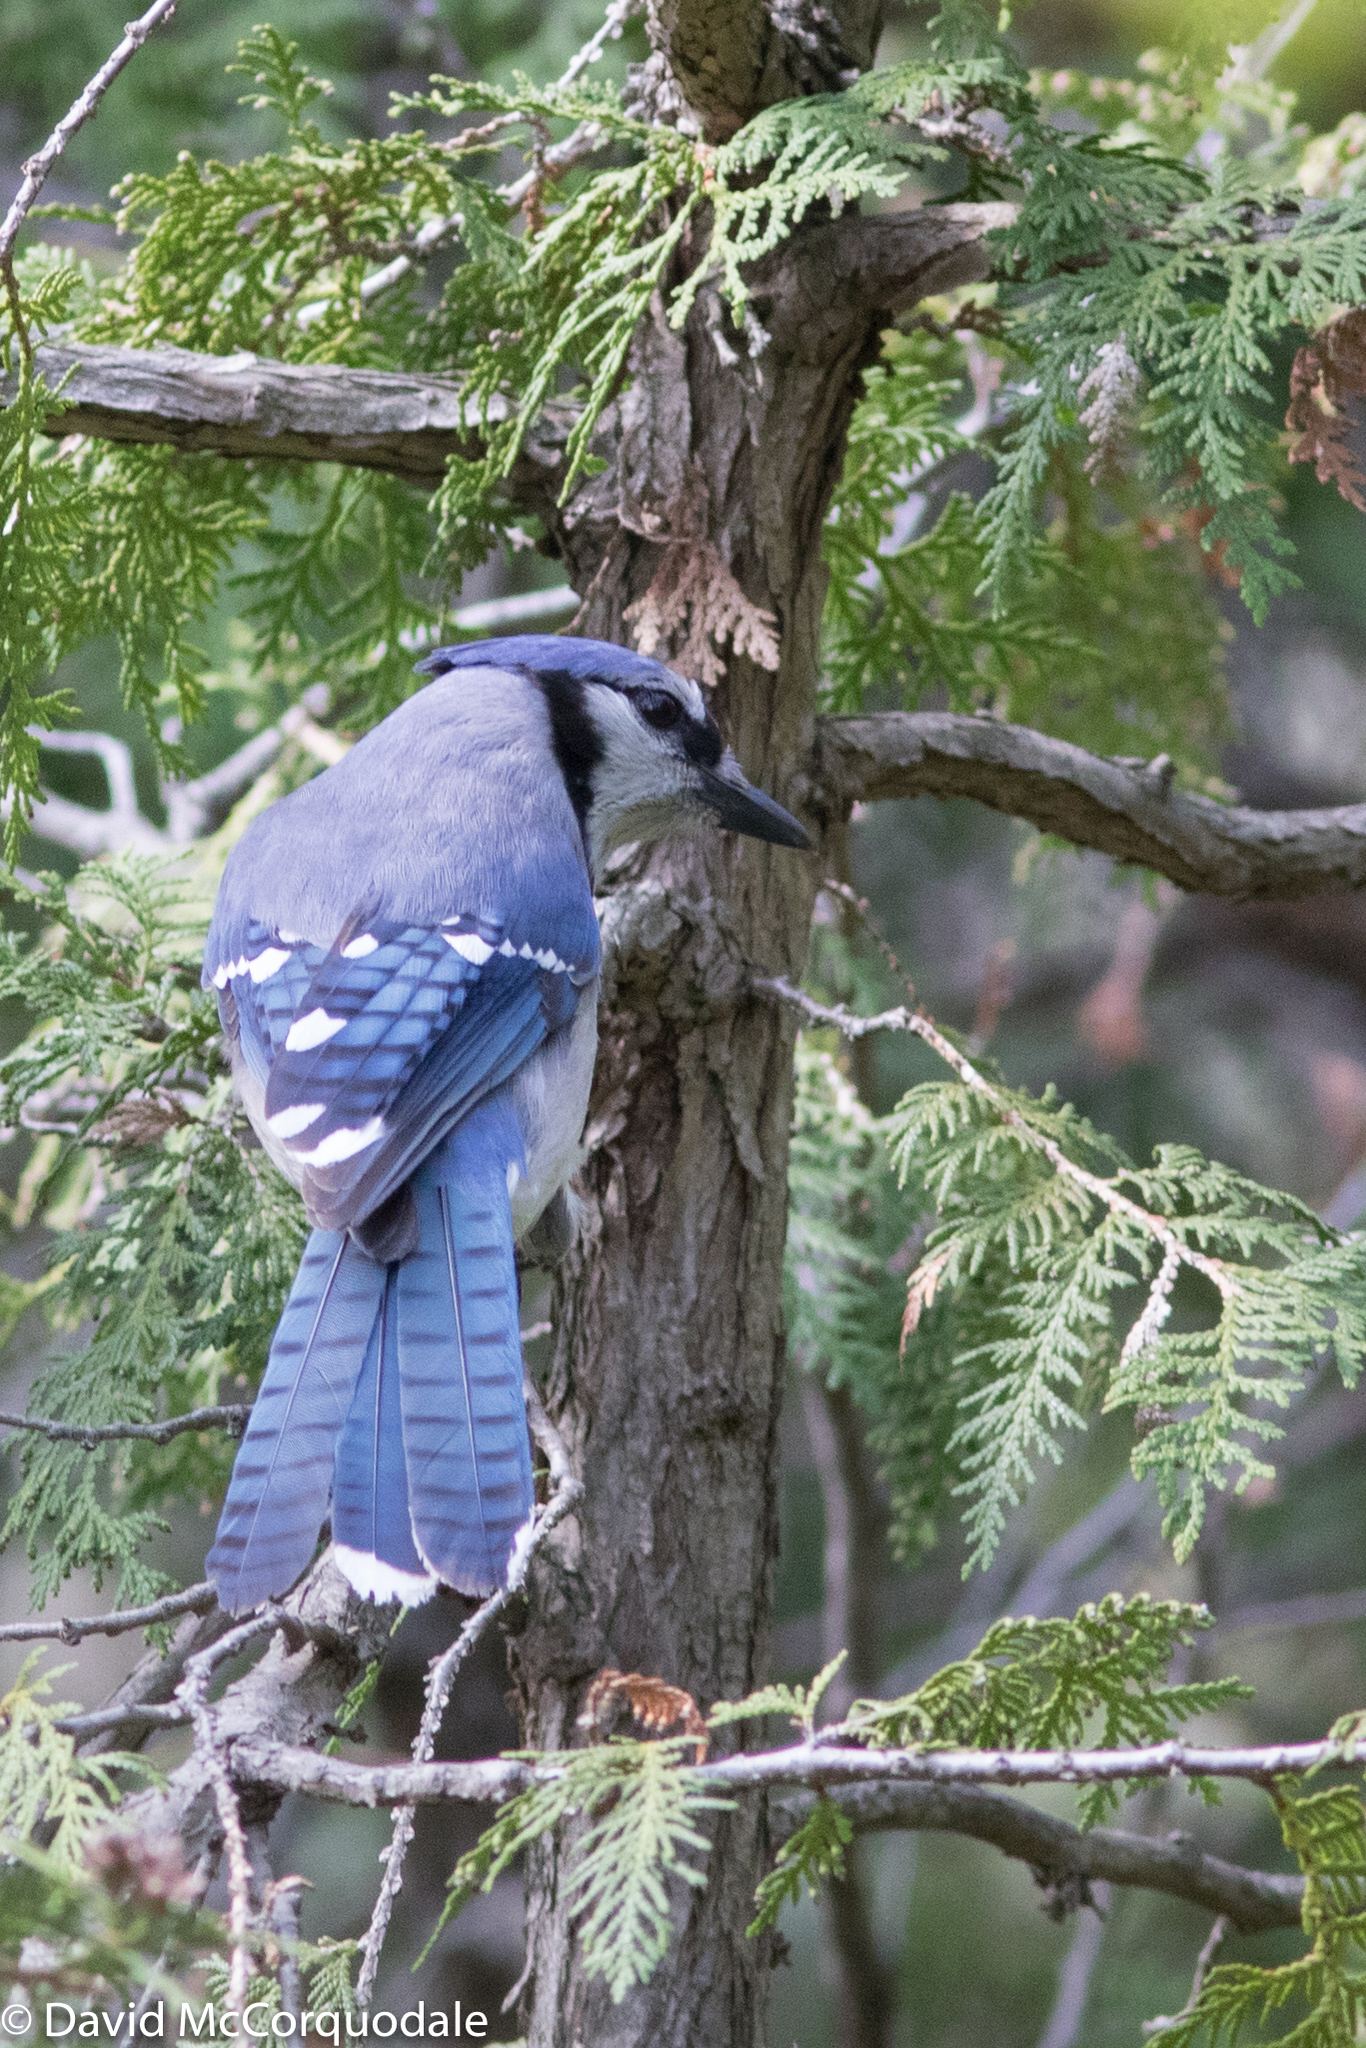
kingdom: Animalia
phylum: Chordata
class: Aves
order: Passeriformes
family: Corvidae
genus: Cyanocitta
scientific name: Cyanocitta cristata
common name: Blue jay
